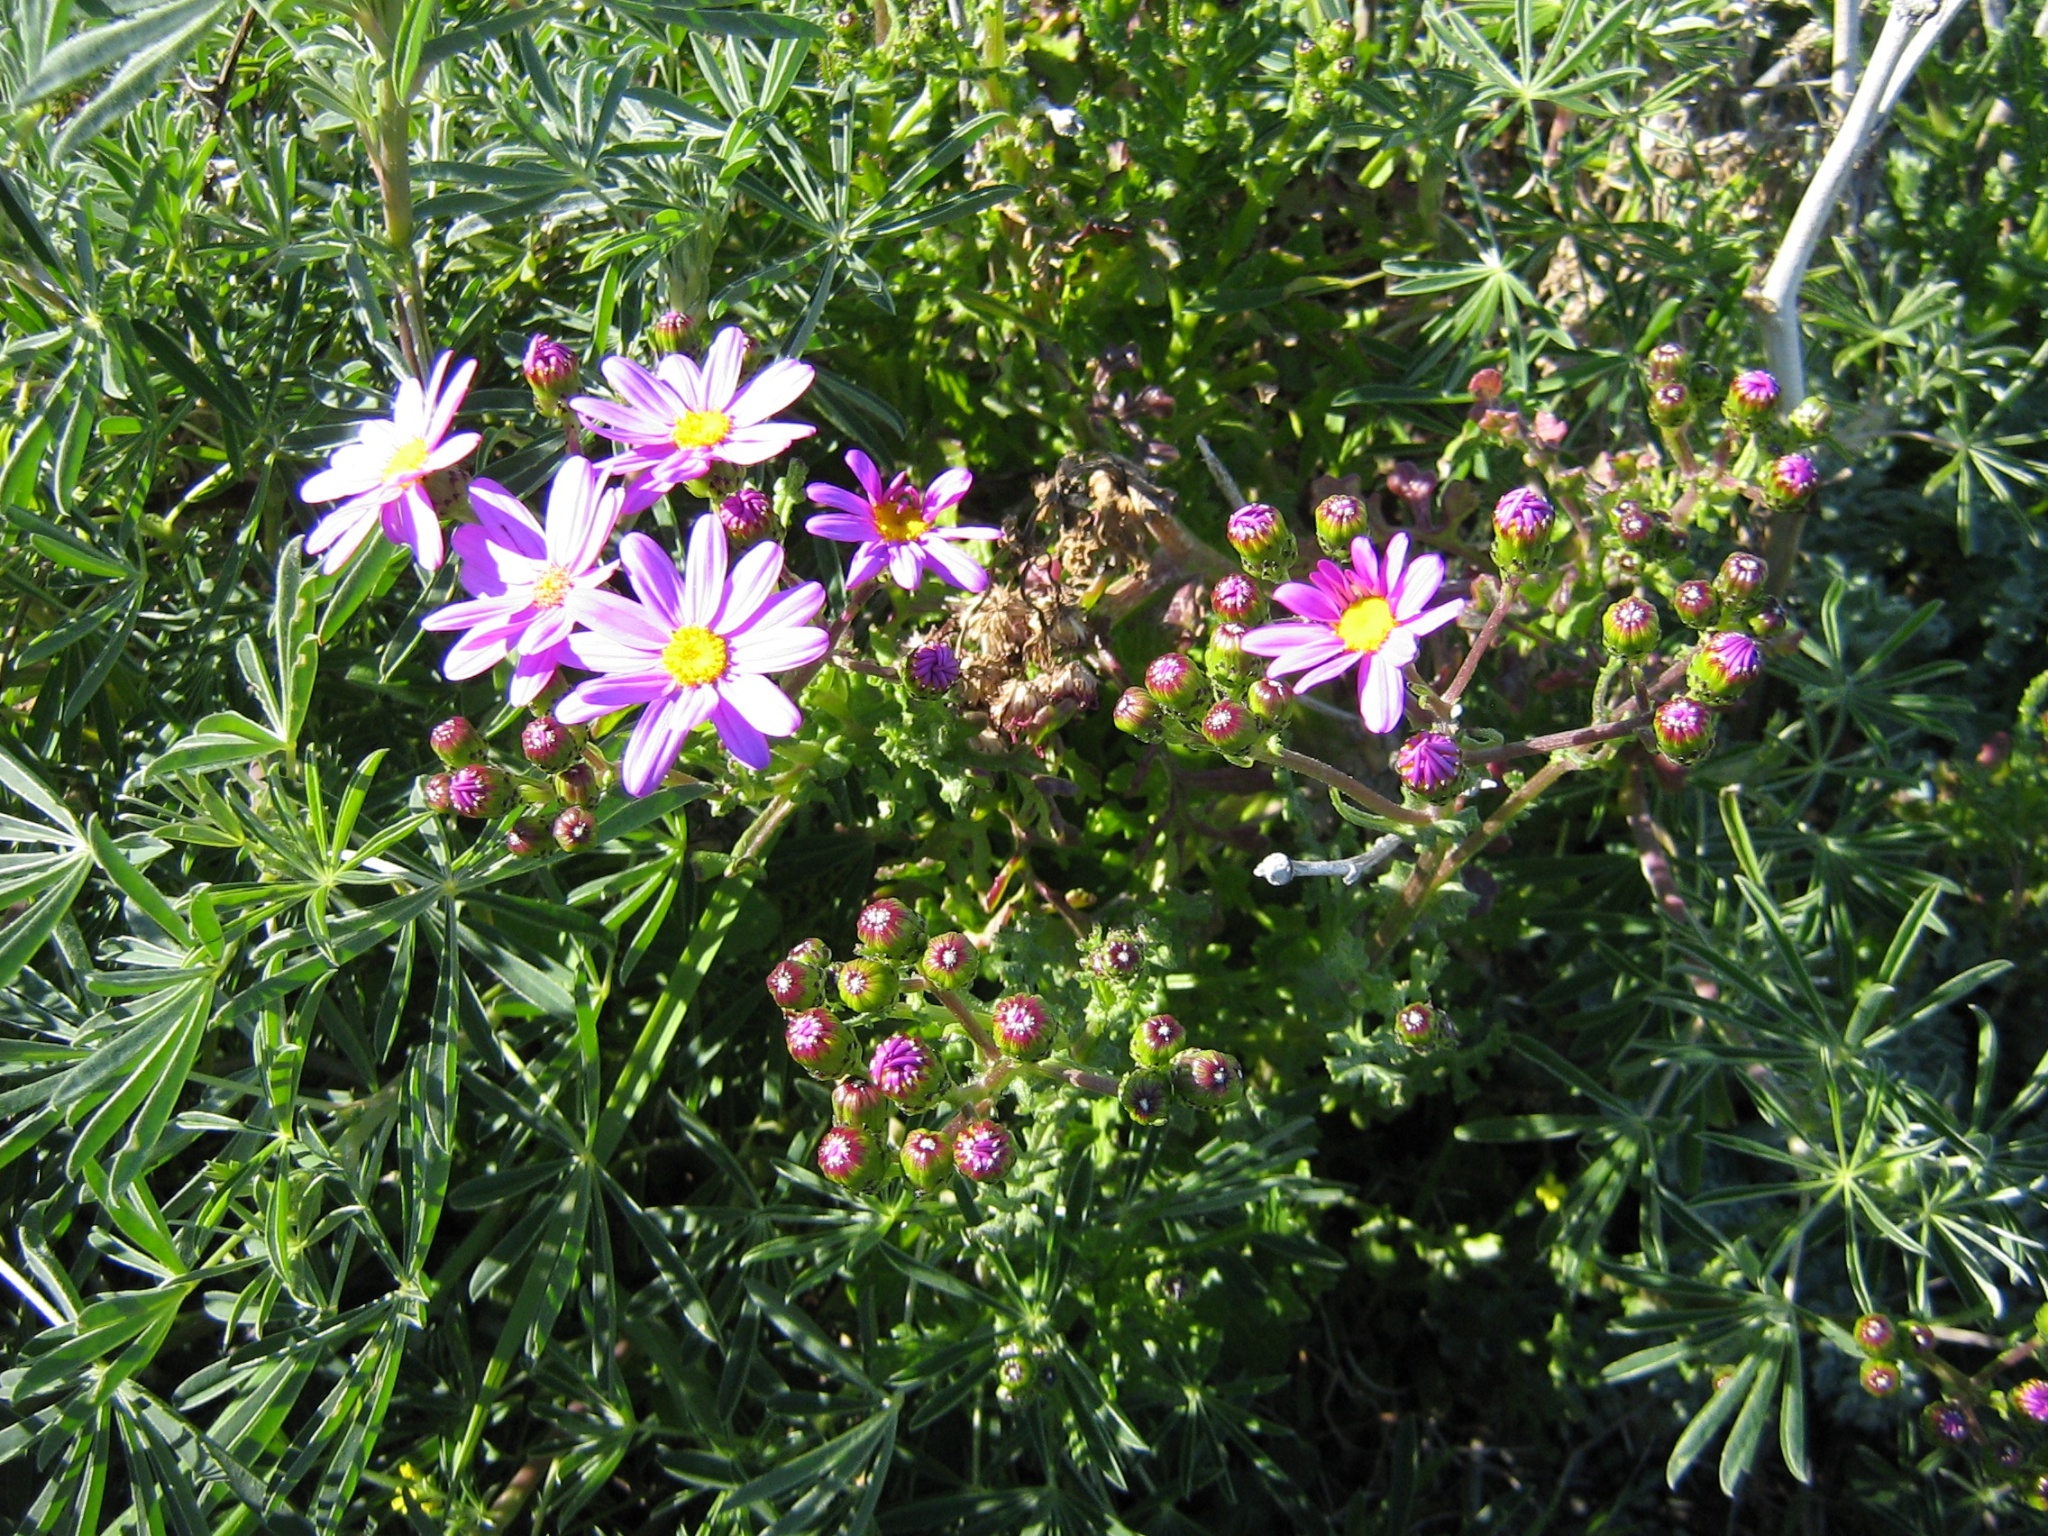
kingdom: Plantae
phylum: Tracheophyta
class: Magnoliopsida
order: Asterales
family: Asteraceae
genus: Senecio
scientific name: Senecio elegans
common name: Purple groundsel
